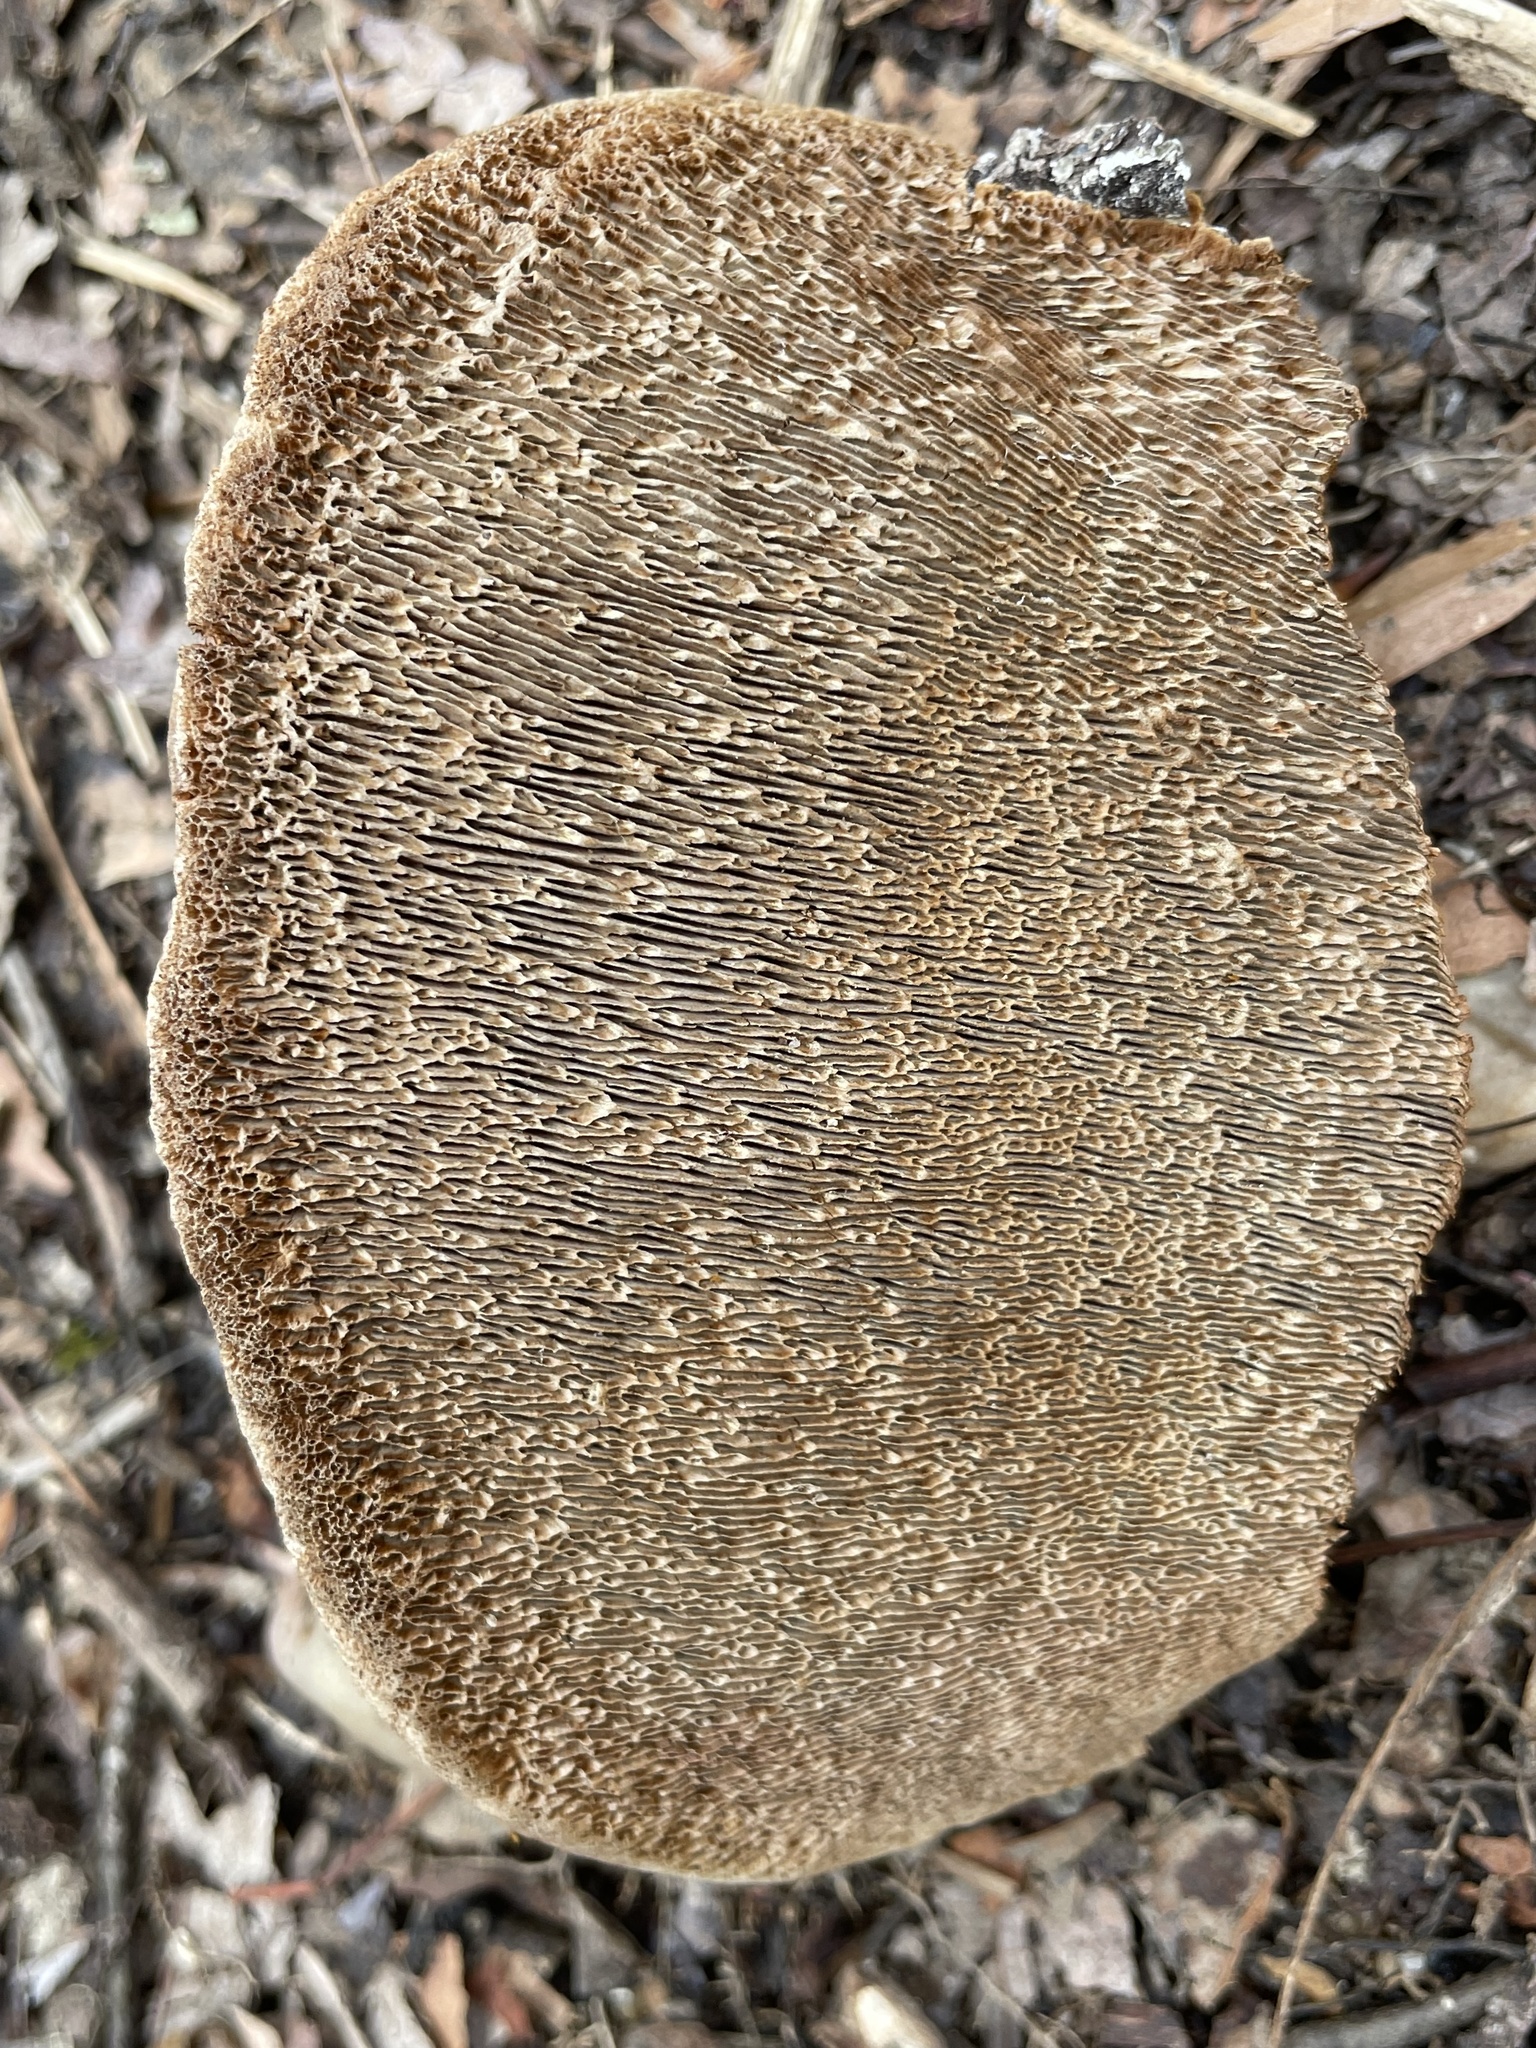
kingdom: Fungi
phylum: Basidiomycota
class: Agaricomycetes
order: Hymenochaetales
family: Hymenochaetaceae
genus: Porodaedalea
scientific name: Porodaedalea pini
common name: Pine bracket
